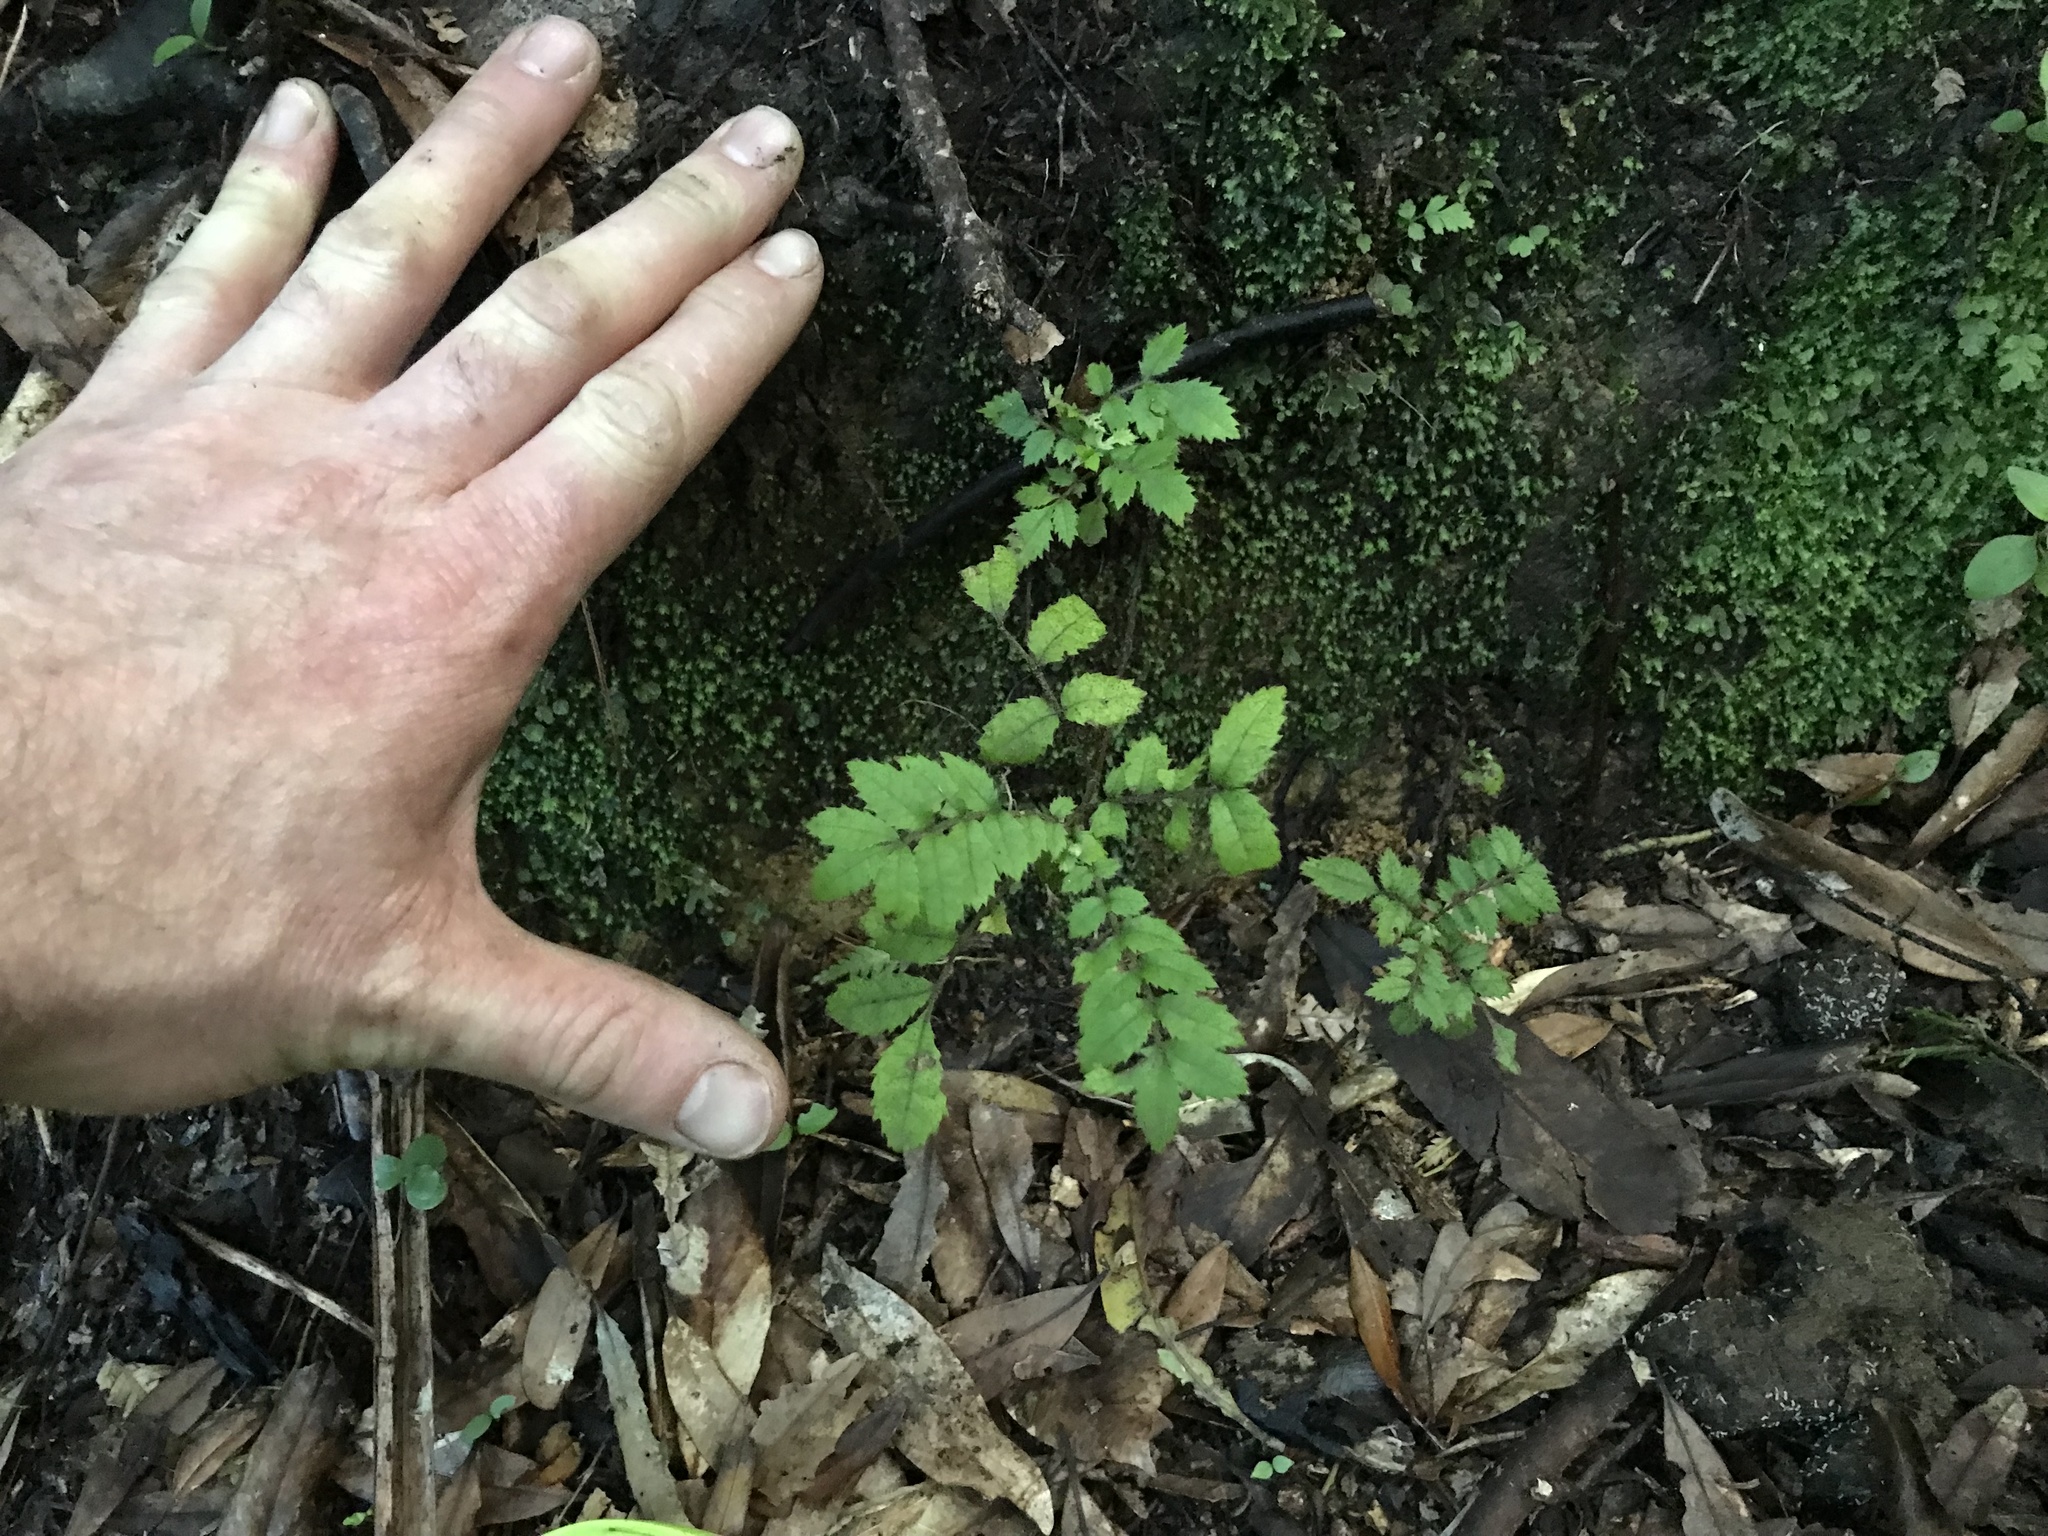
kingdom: Plantae
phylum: Tracheophyta
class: Magnoliopsida
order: Oxalidales
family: Cunoniaceae
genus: Ackama
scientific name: Ackama rosifolia
